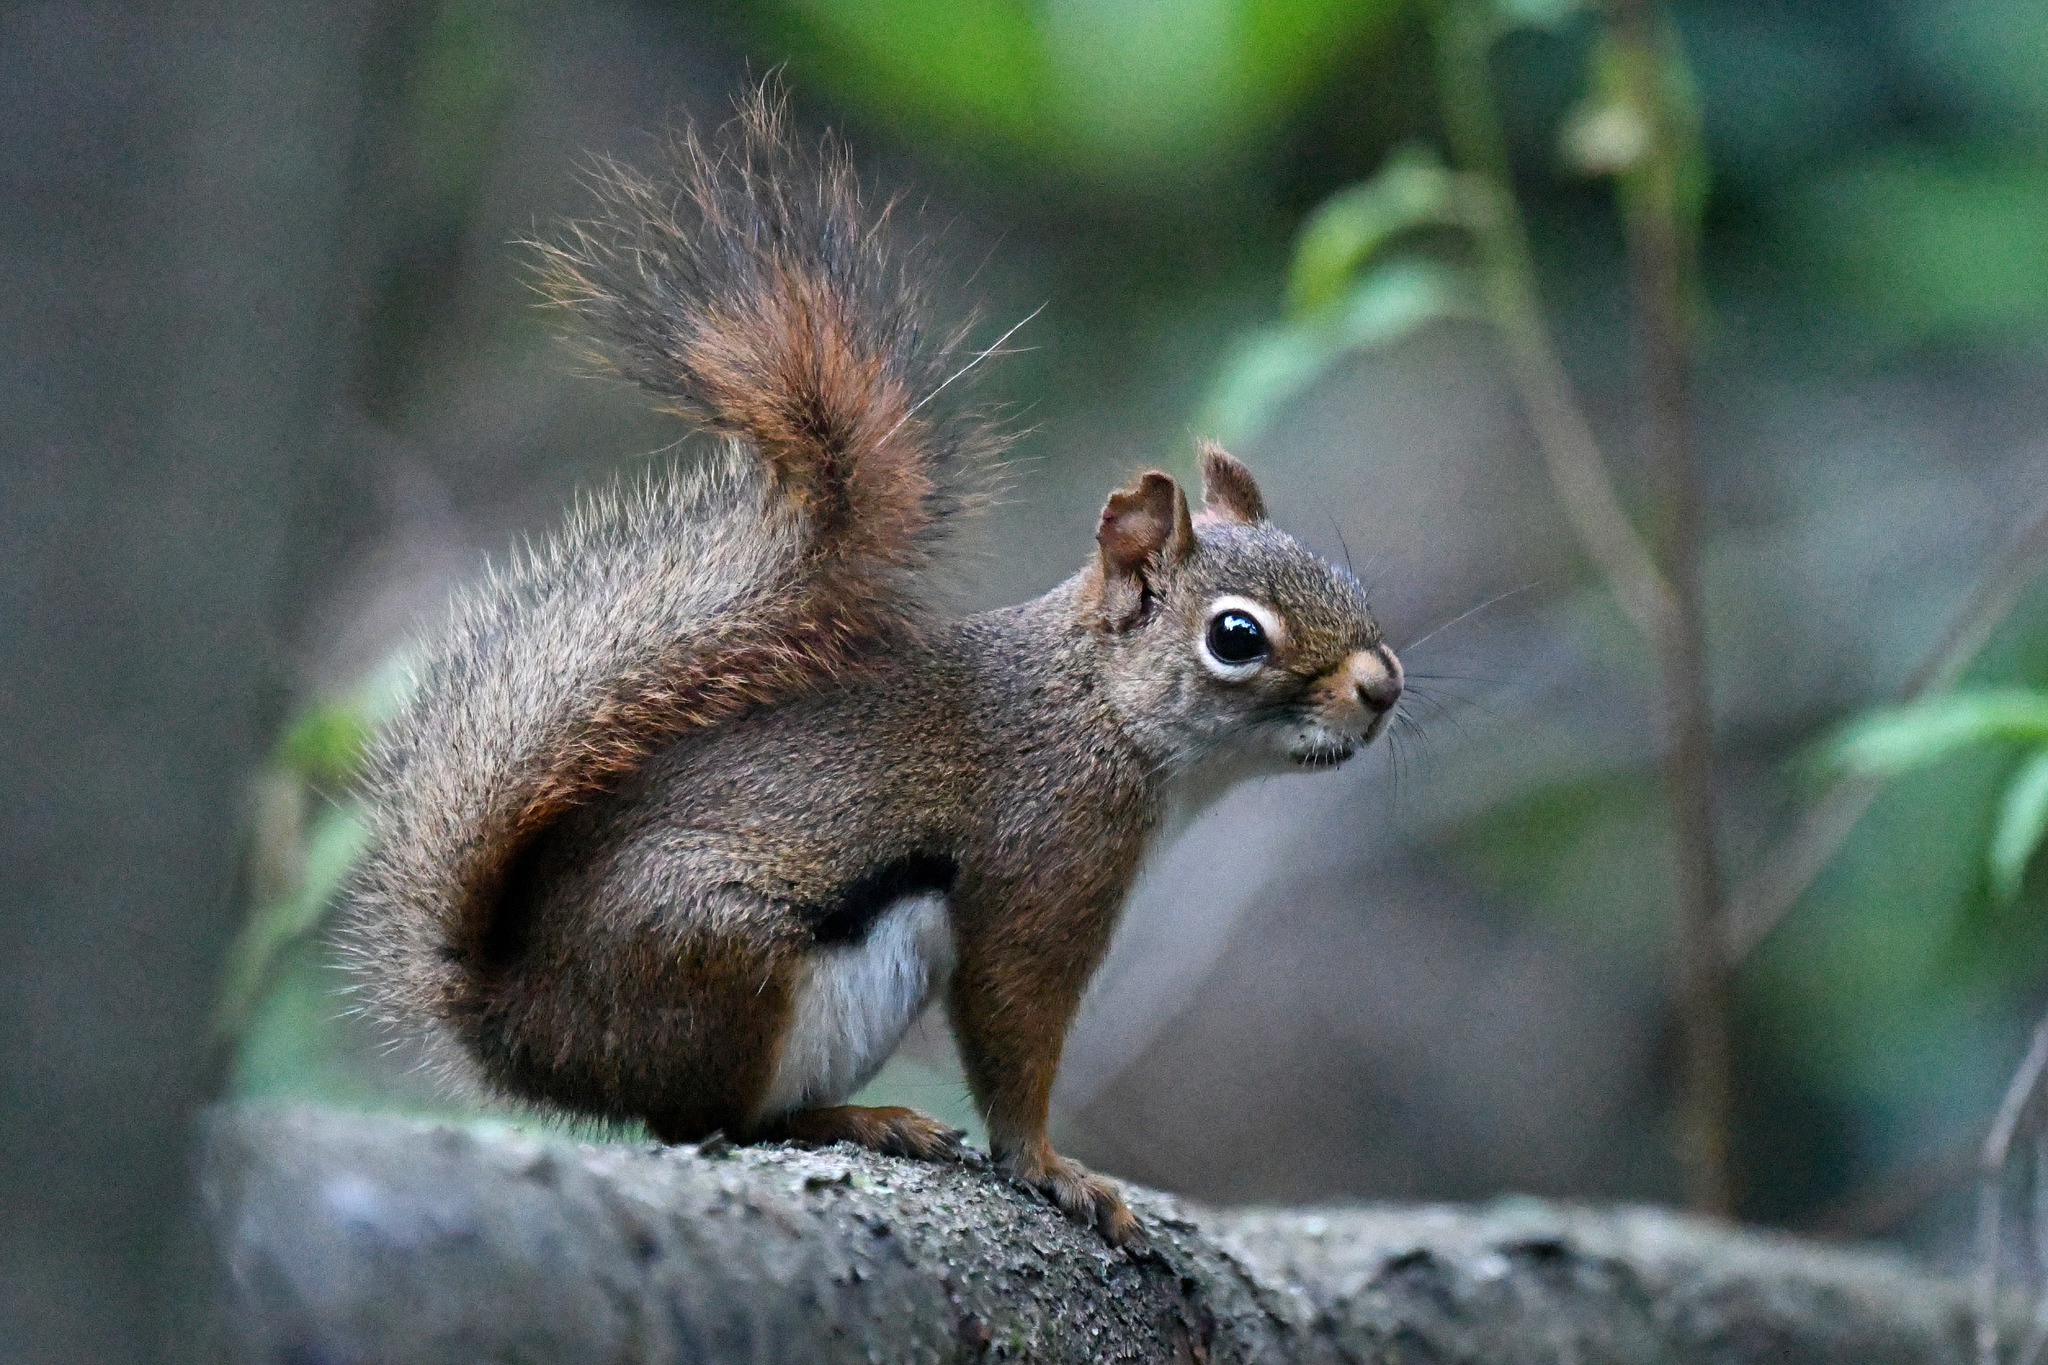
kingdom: Animalia
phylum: Chordata
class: Mammalia
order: Rodentia
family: Sciuridae
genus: Tamiasciurus
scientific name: Tamiasciurus hudsonicus
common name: Red squirrel
